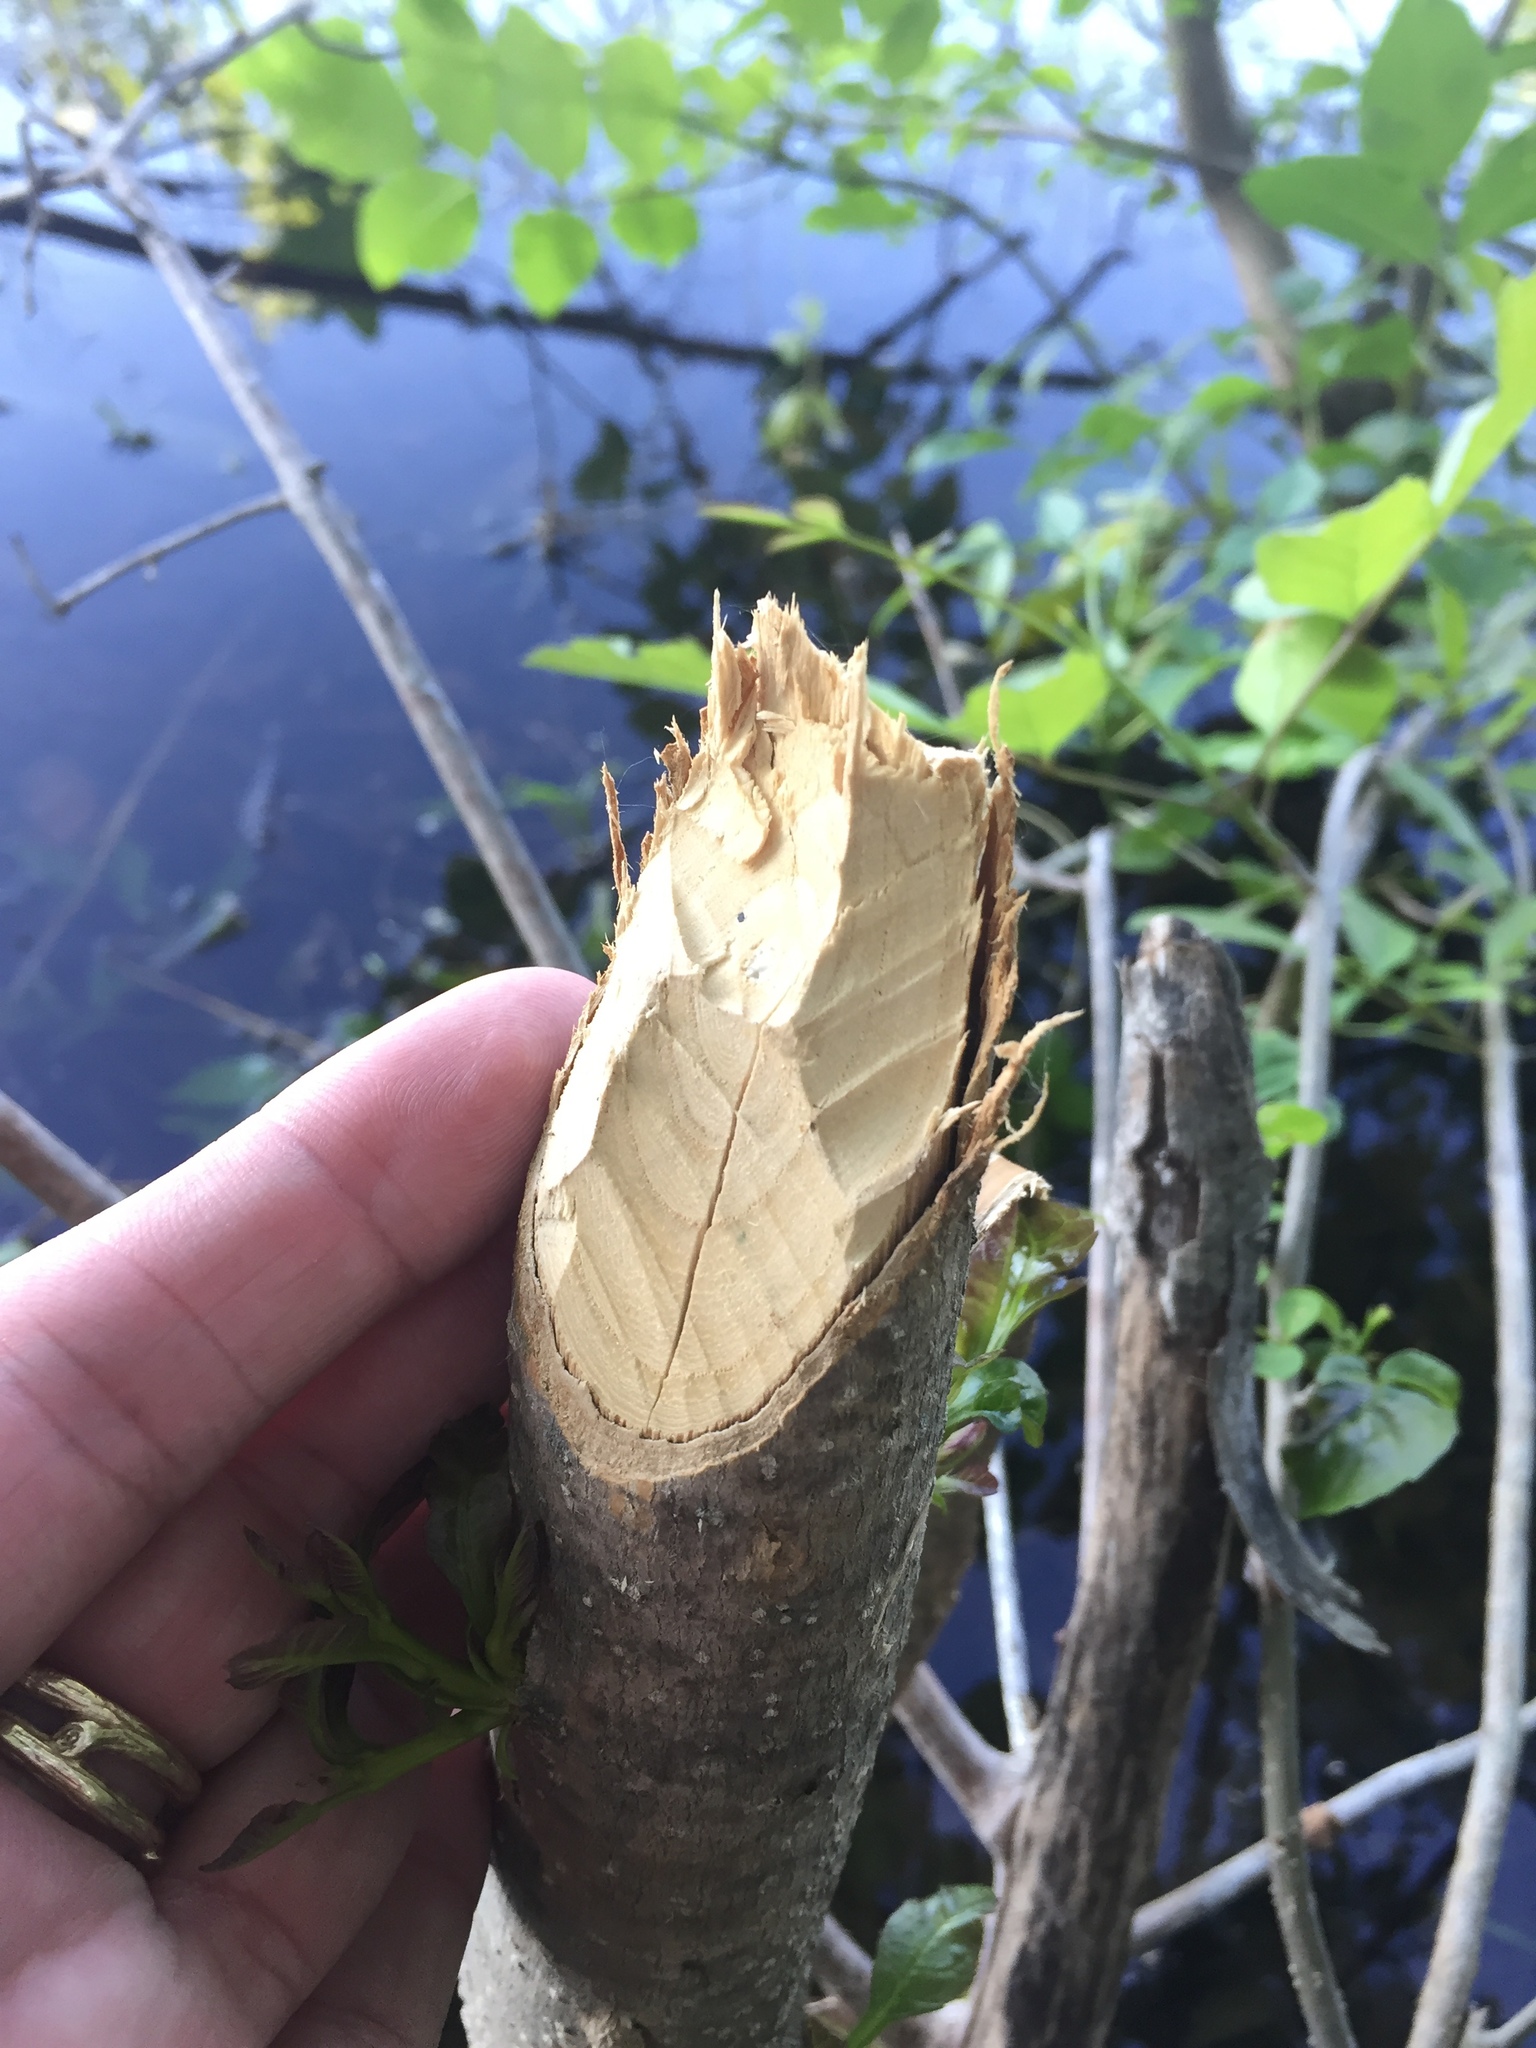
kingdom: Animalia
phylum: Chordata
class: Mammalia
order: Rodentia
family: Castoridae
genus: Castor
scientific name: Castor canadensis
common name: American beaver
